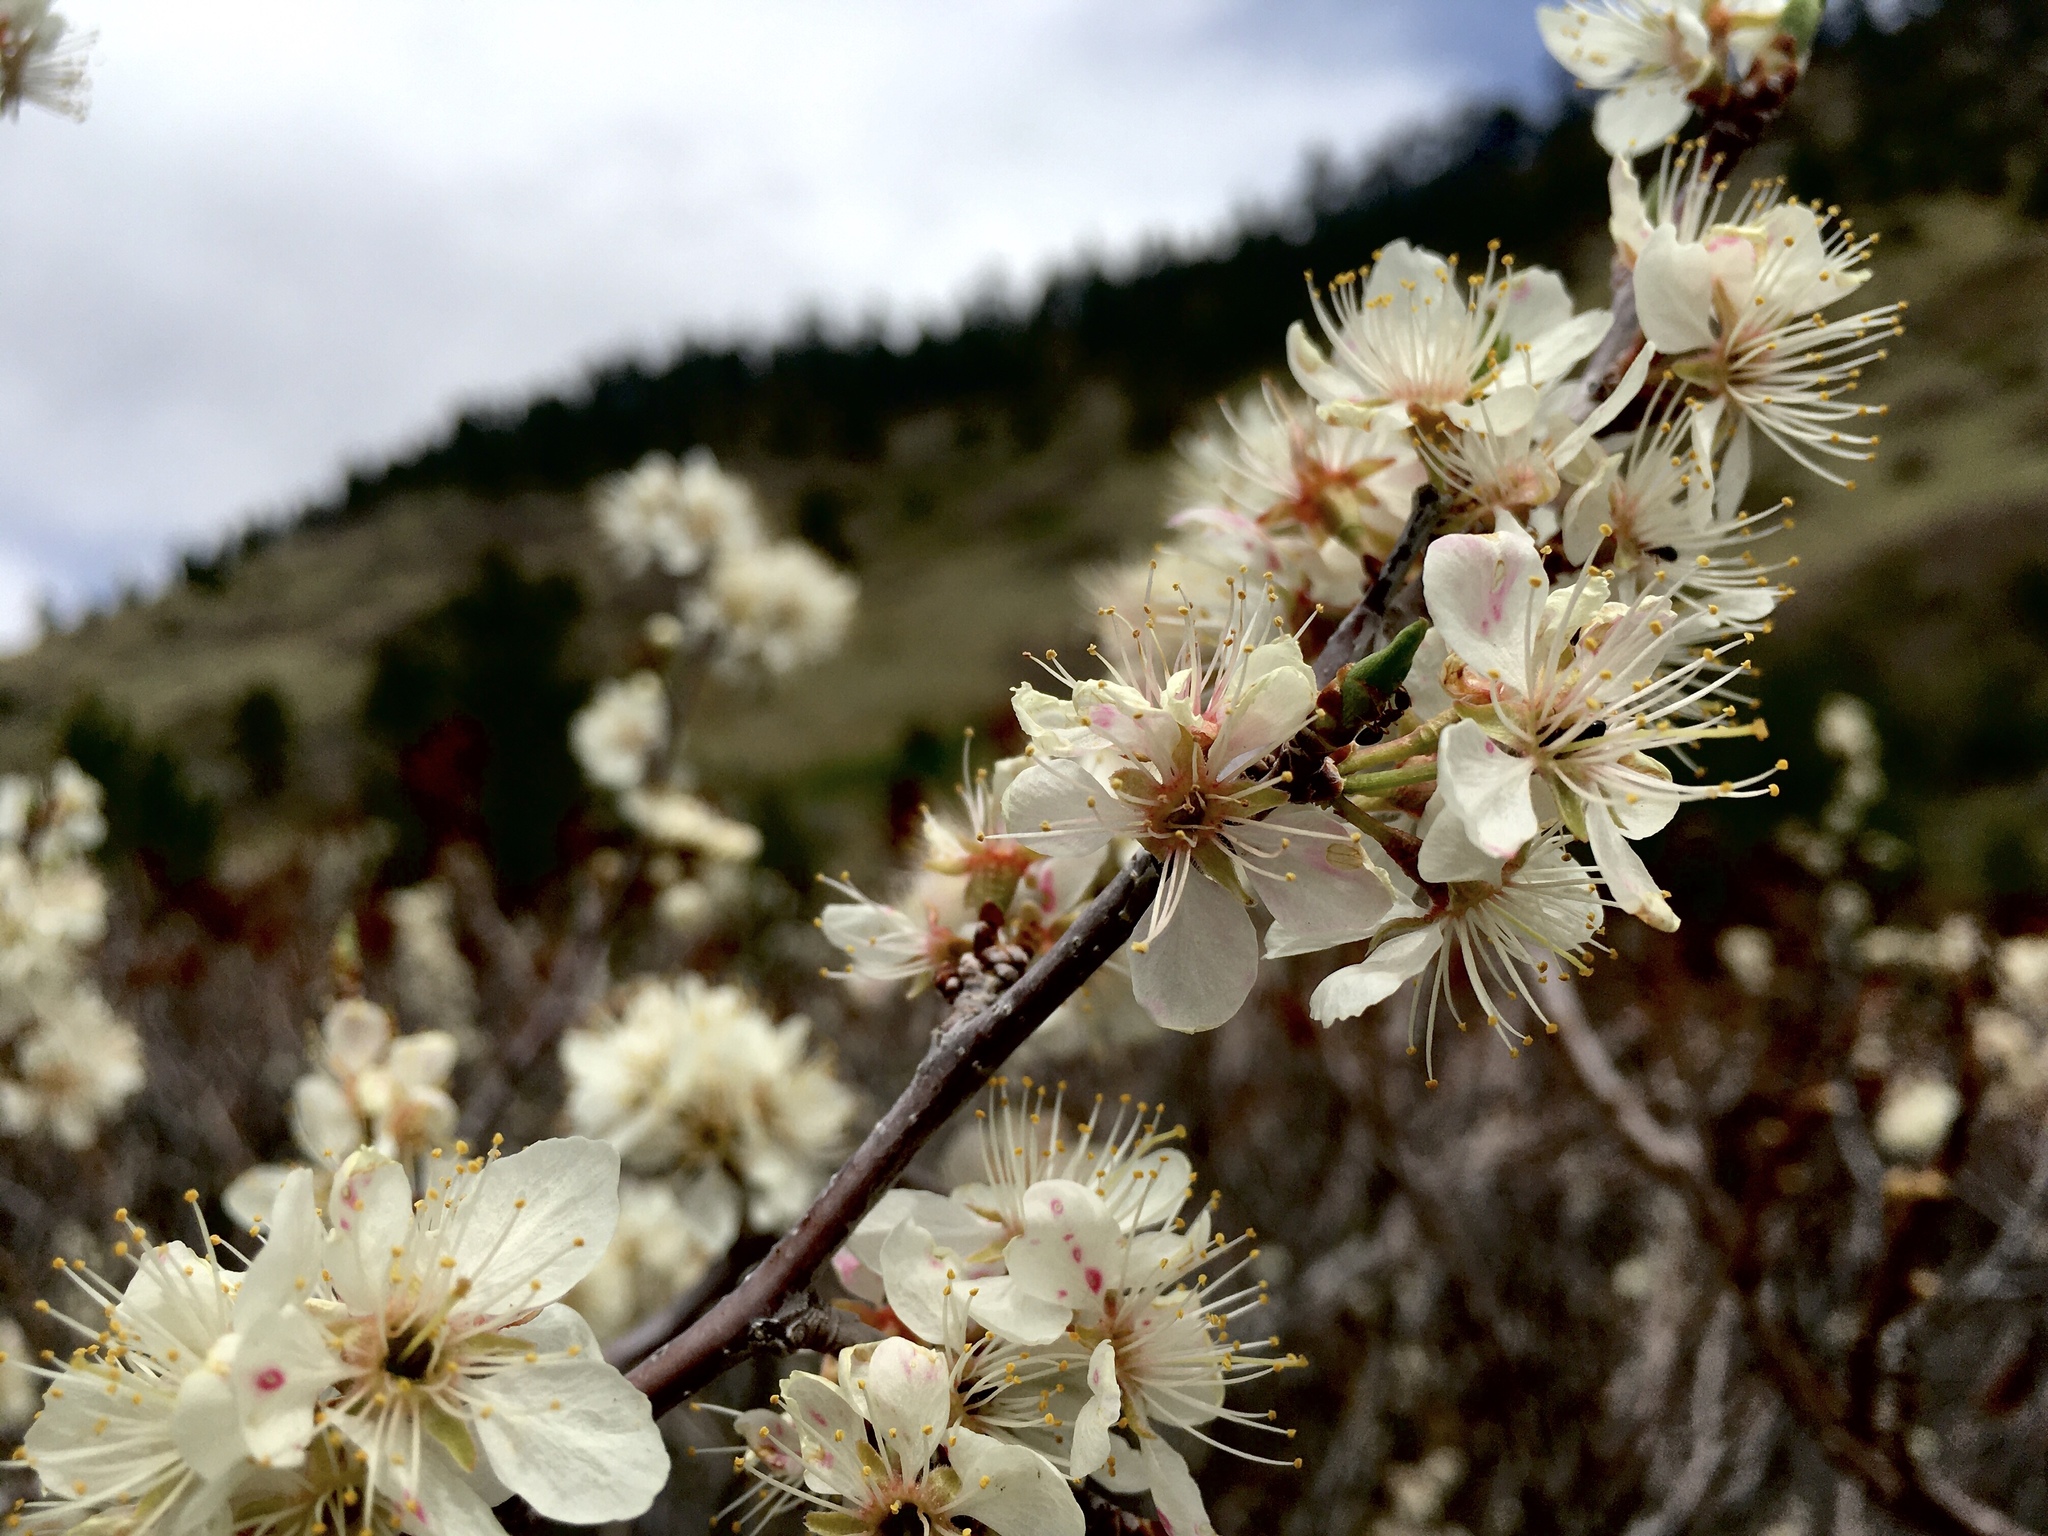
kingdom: Plantae
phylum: Tracheophyta
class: Magnoliopsida
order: Rosales
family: Rosaceae
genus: Prunus
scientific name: Prunus americana
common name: American plum
